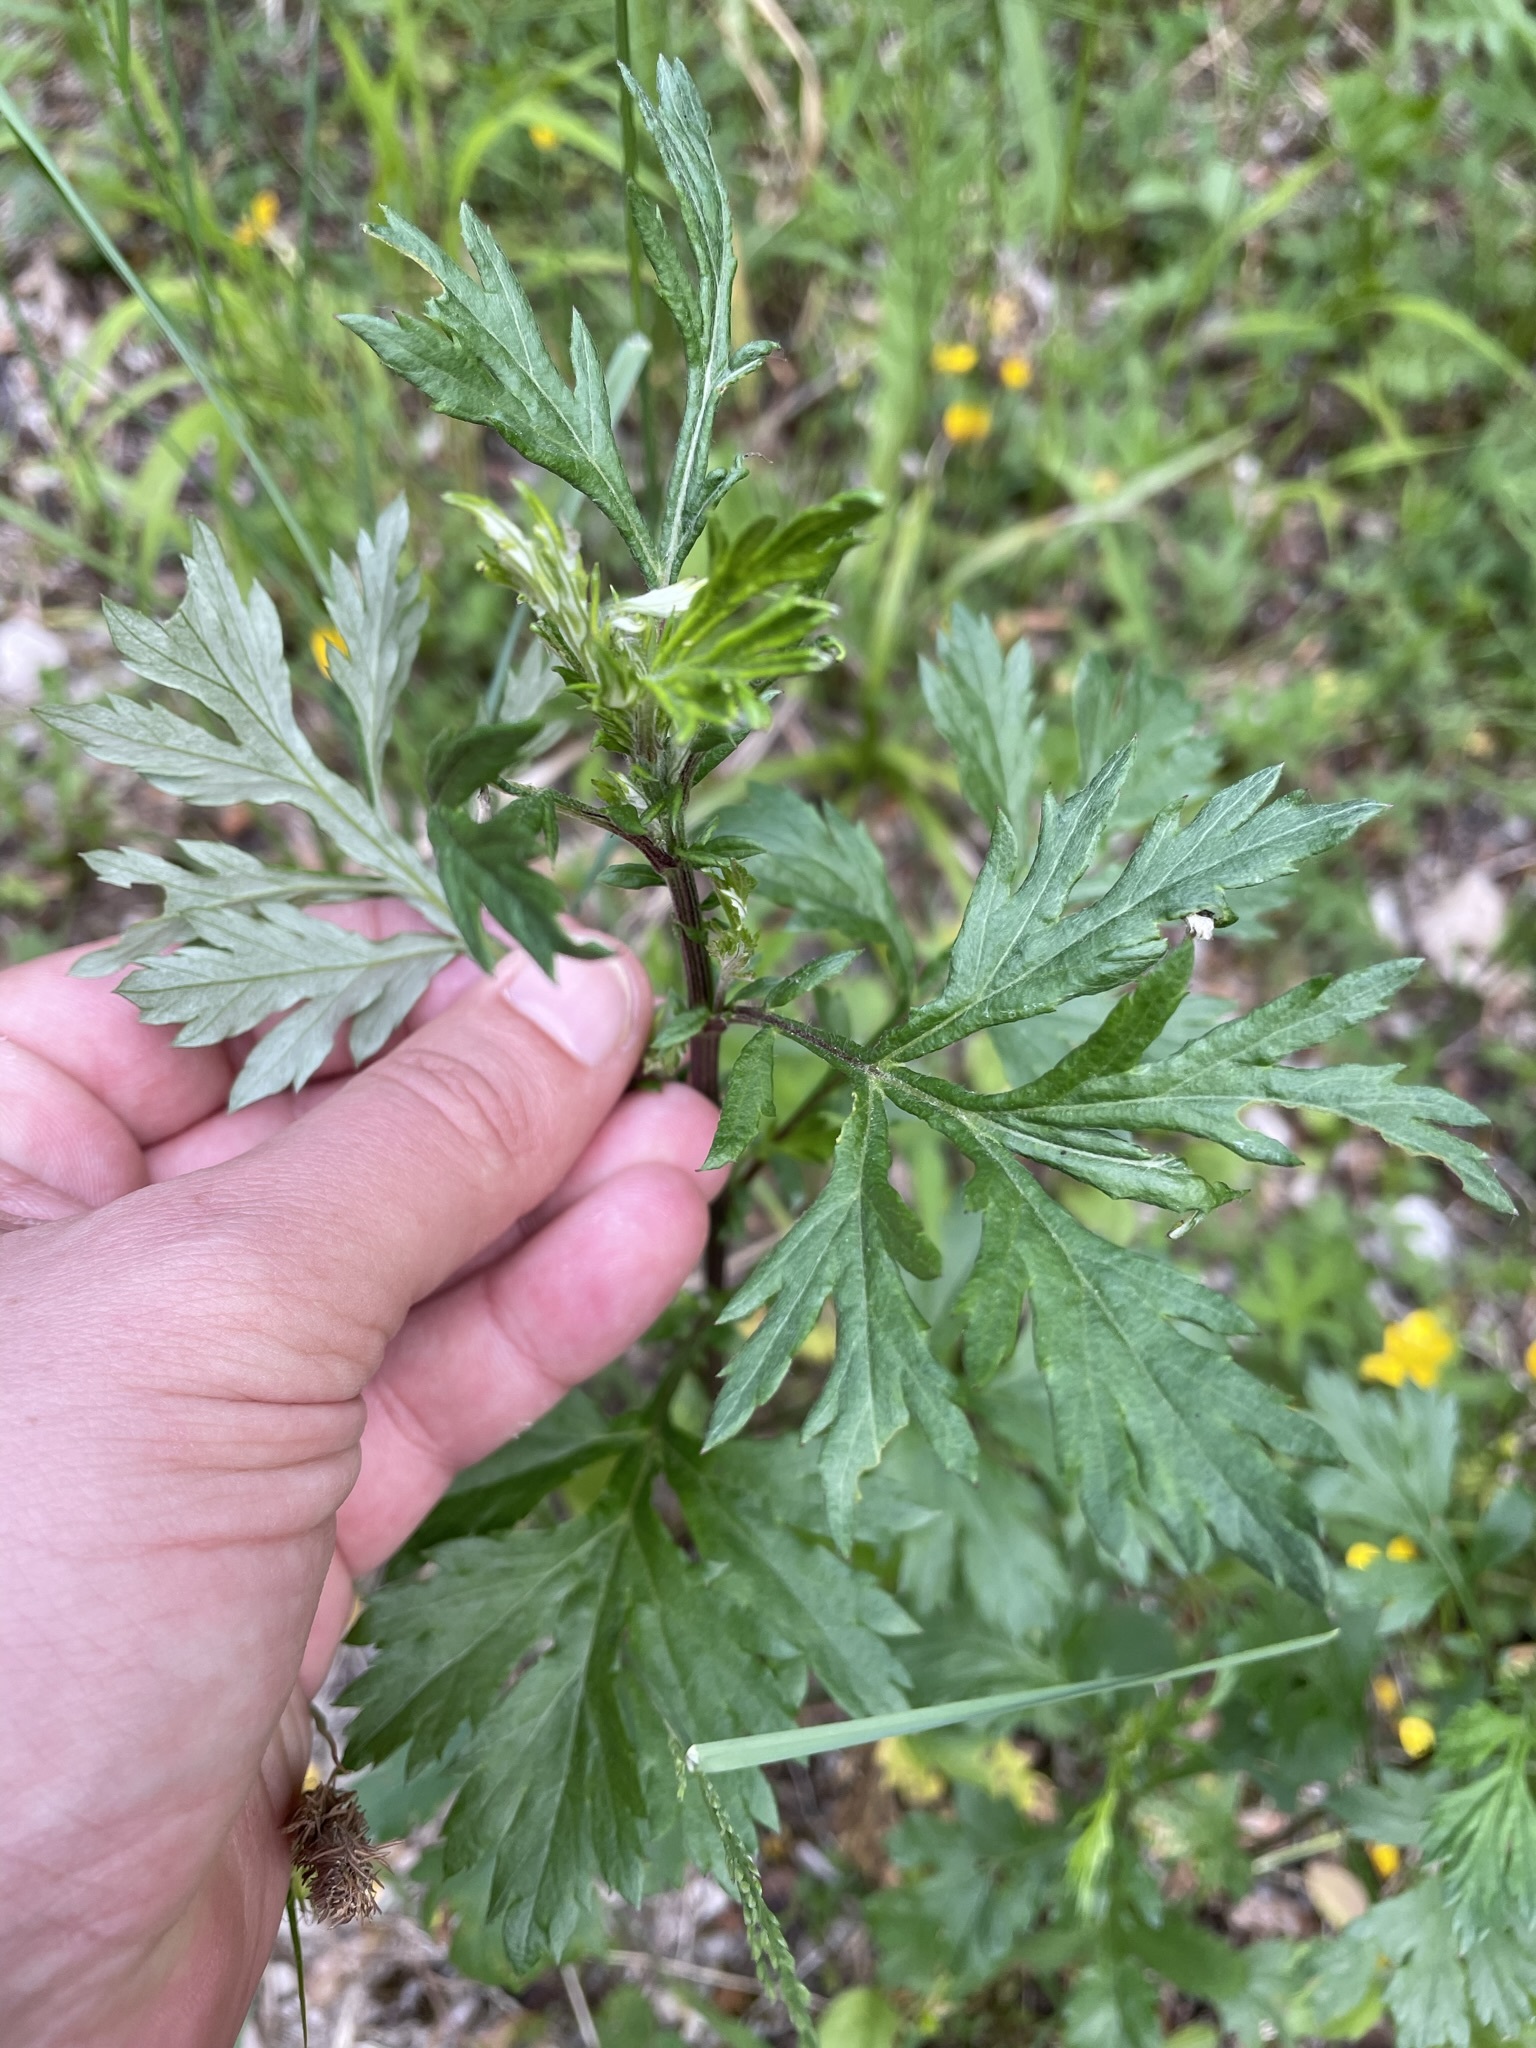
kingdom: Plantae
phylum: Tracheophyta
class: Magnoliopsida
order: Asterales
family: Asteraceae
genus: Artemisia
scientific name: Artemisia vulgaris
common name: Mugwort
